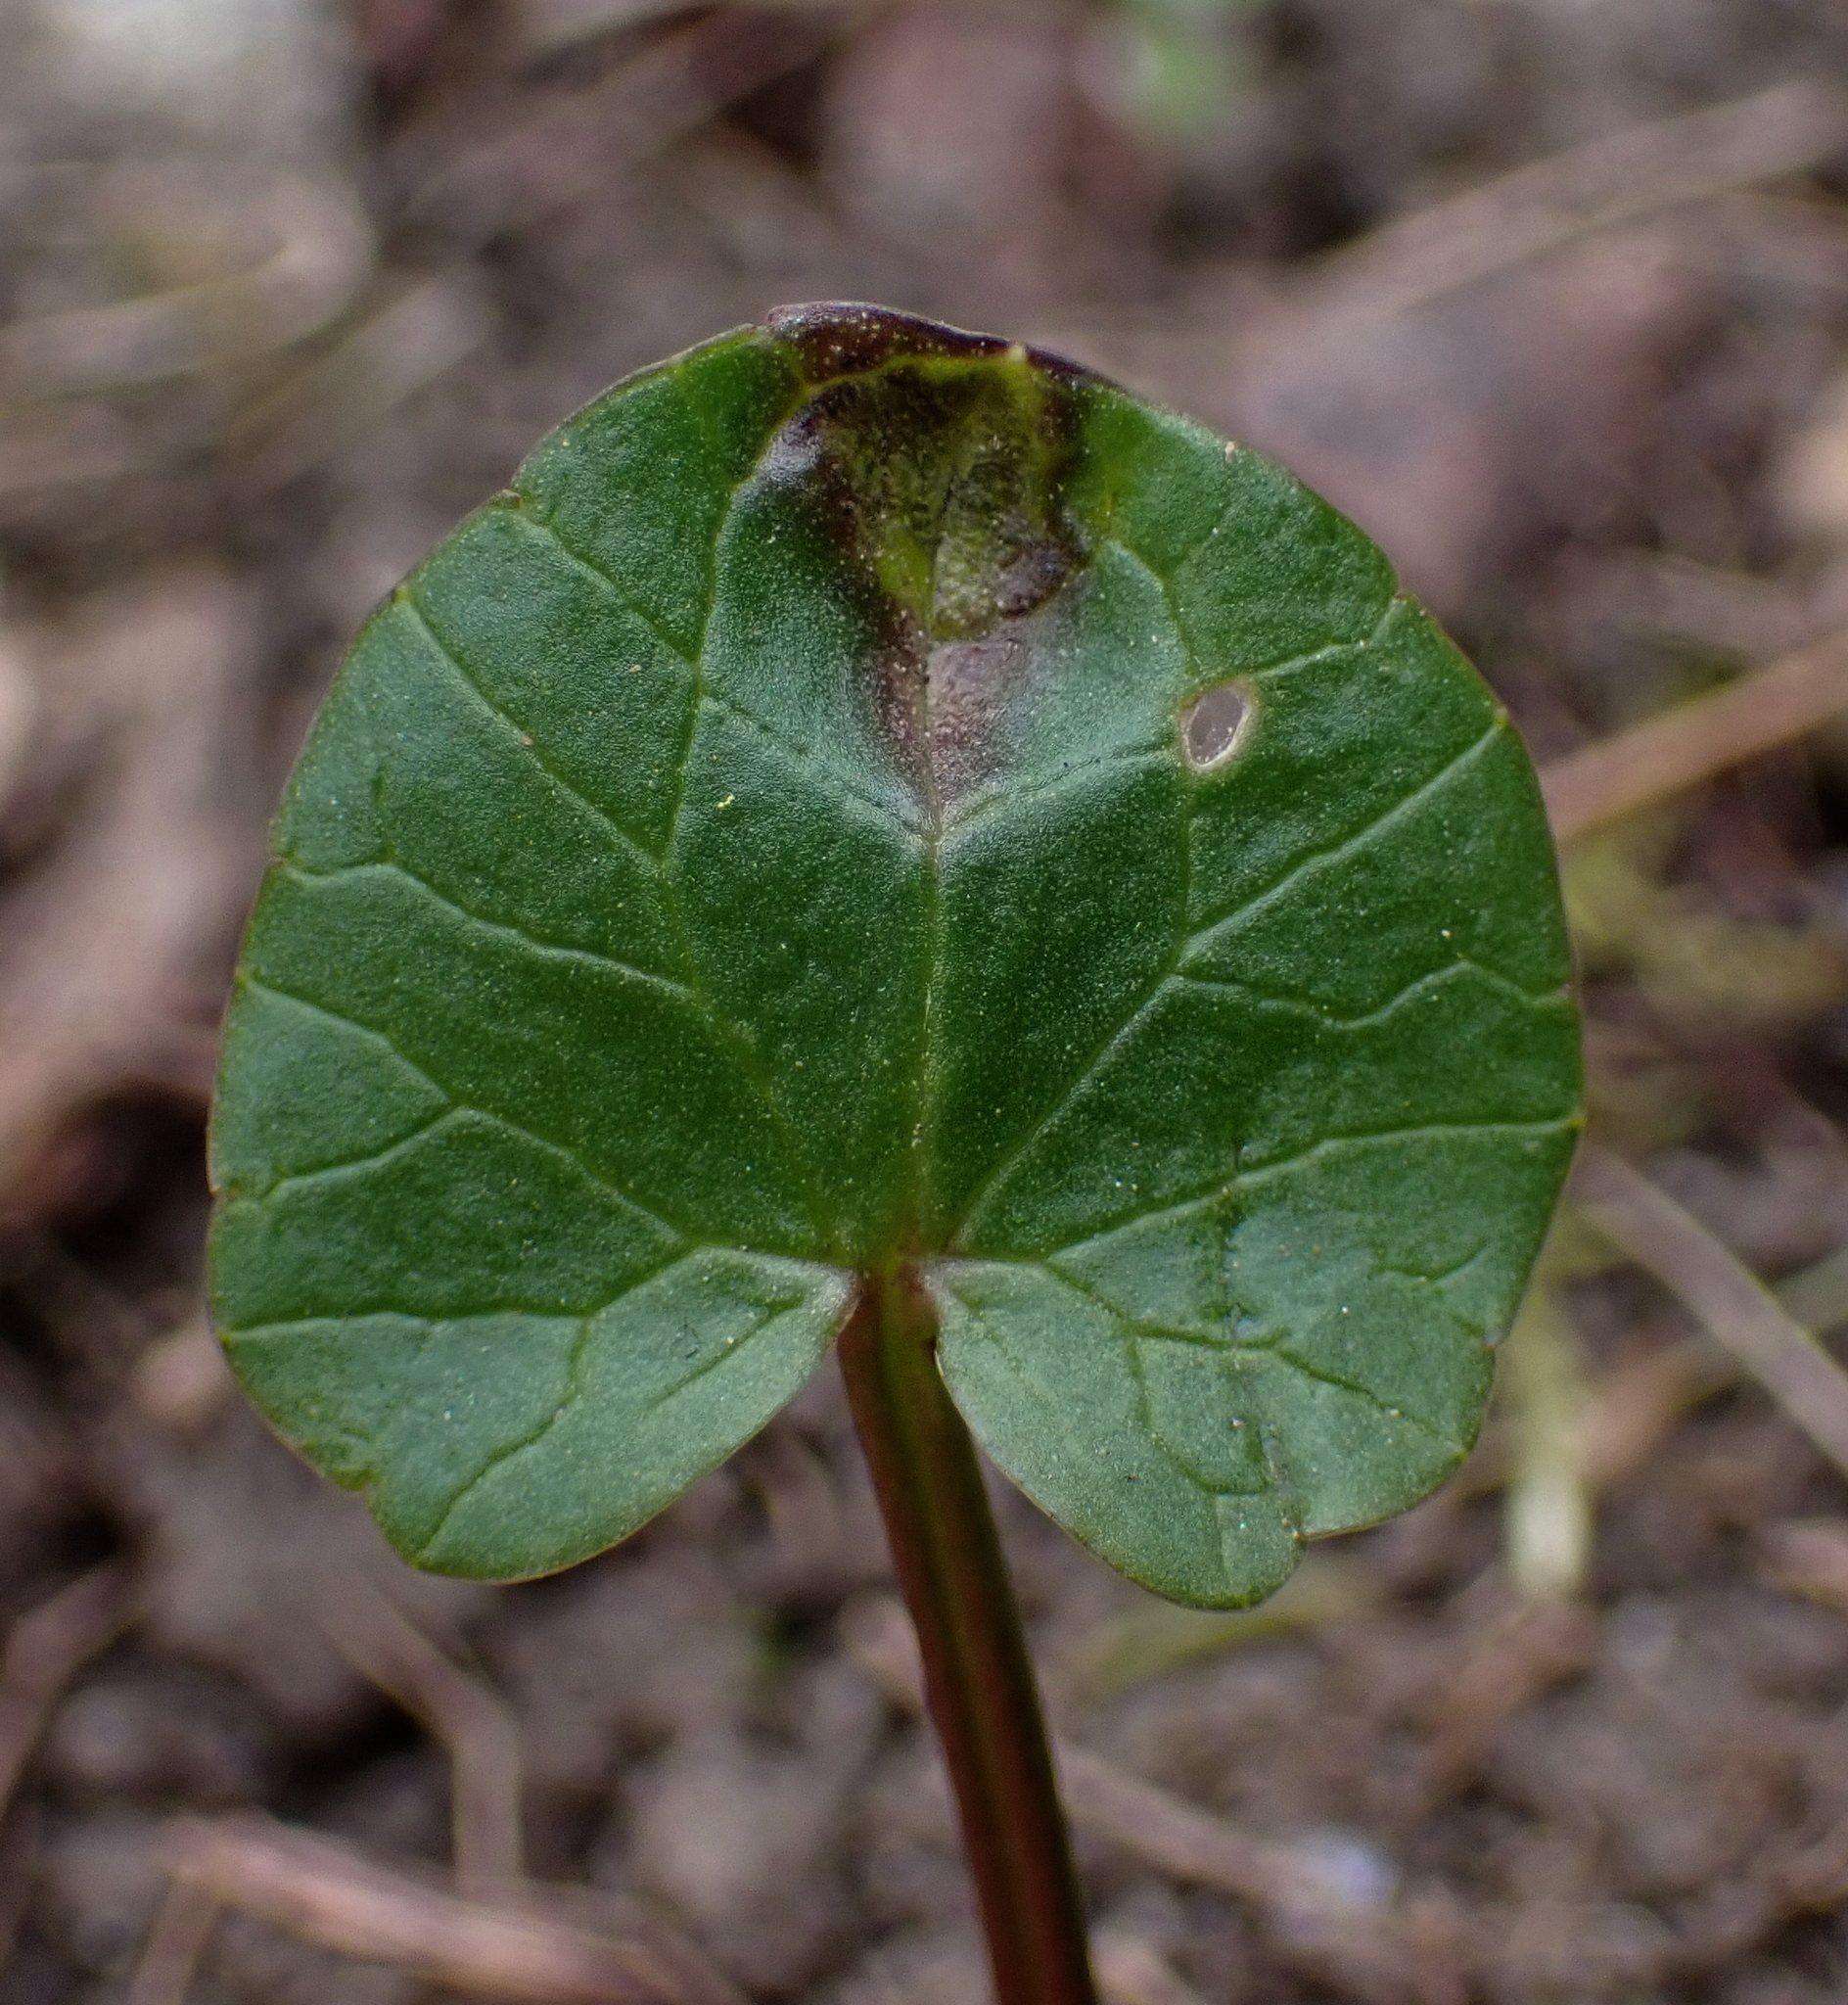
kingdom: Fungi
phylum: Basidiomycota
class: Ustilaginomycetes
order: Urocystidales
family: Urocystidaceae
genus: Urocystis
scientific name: Urocystis ficariae
